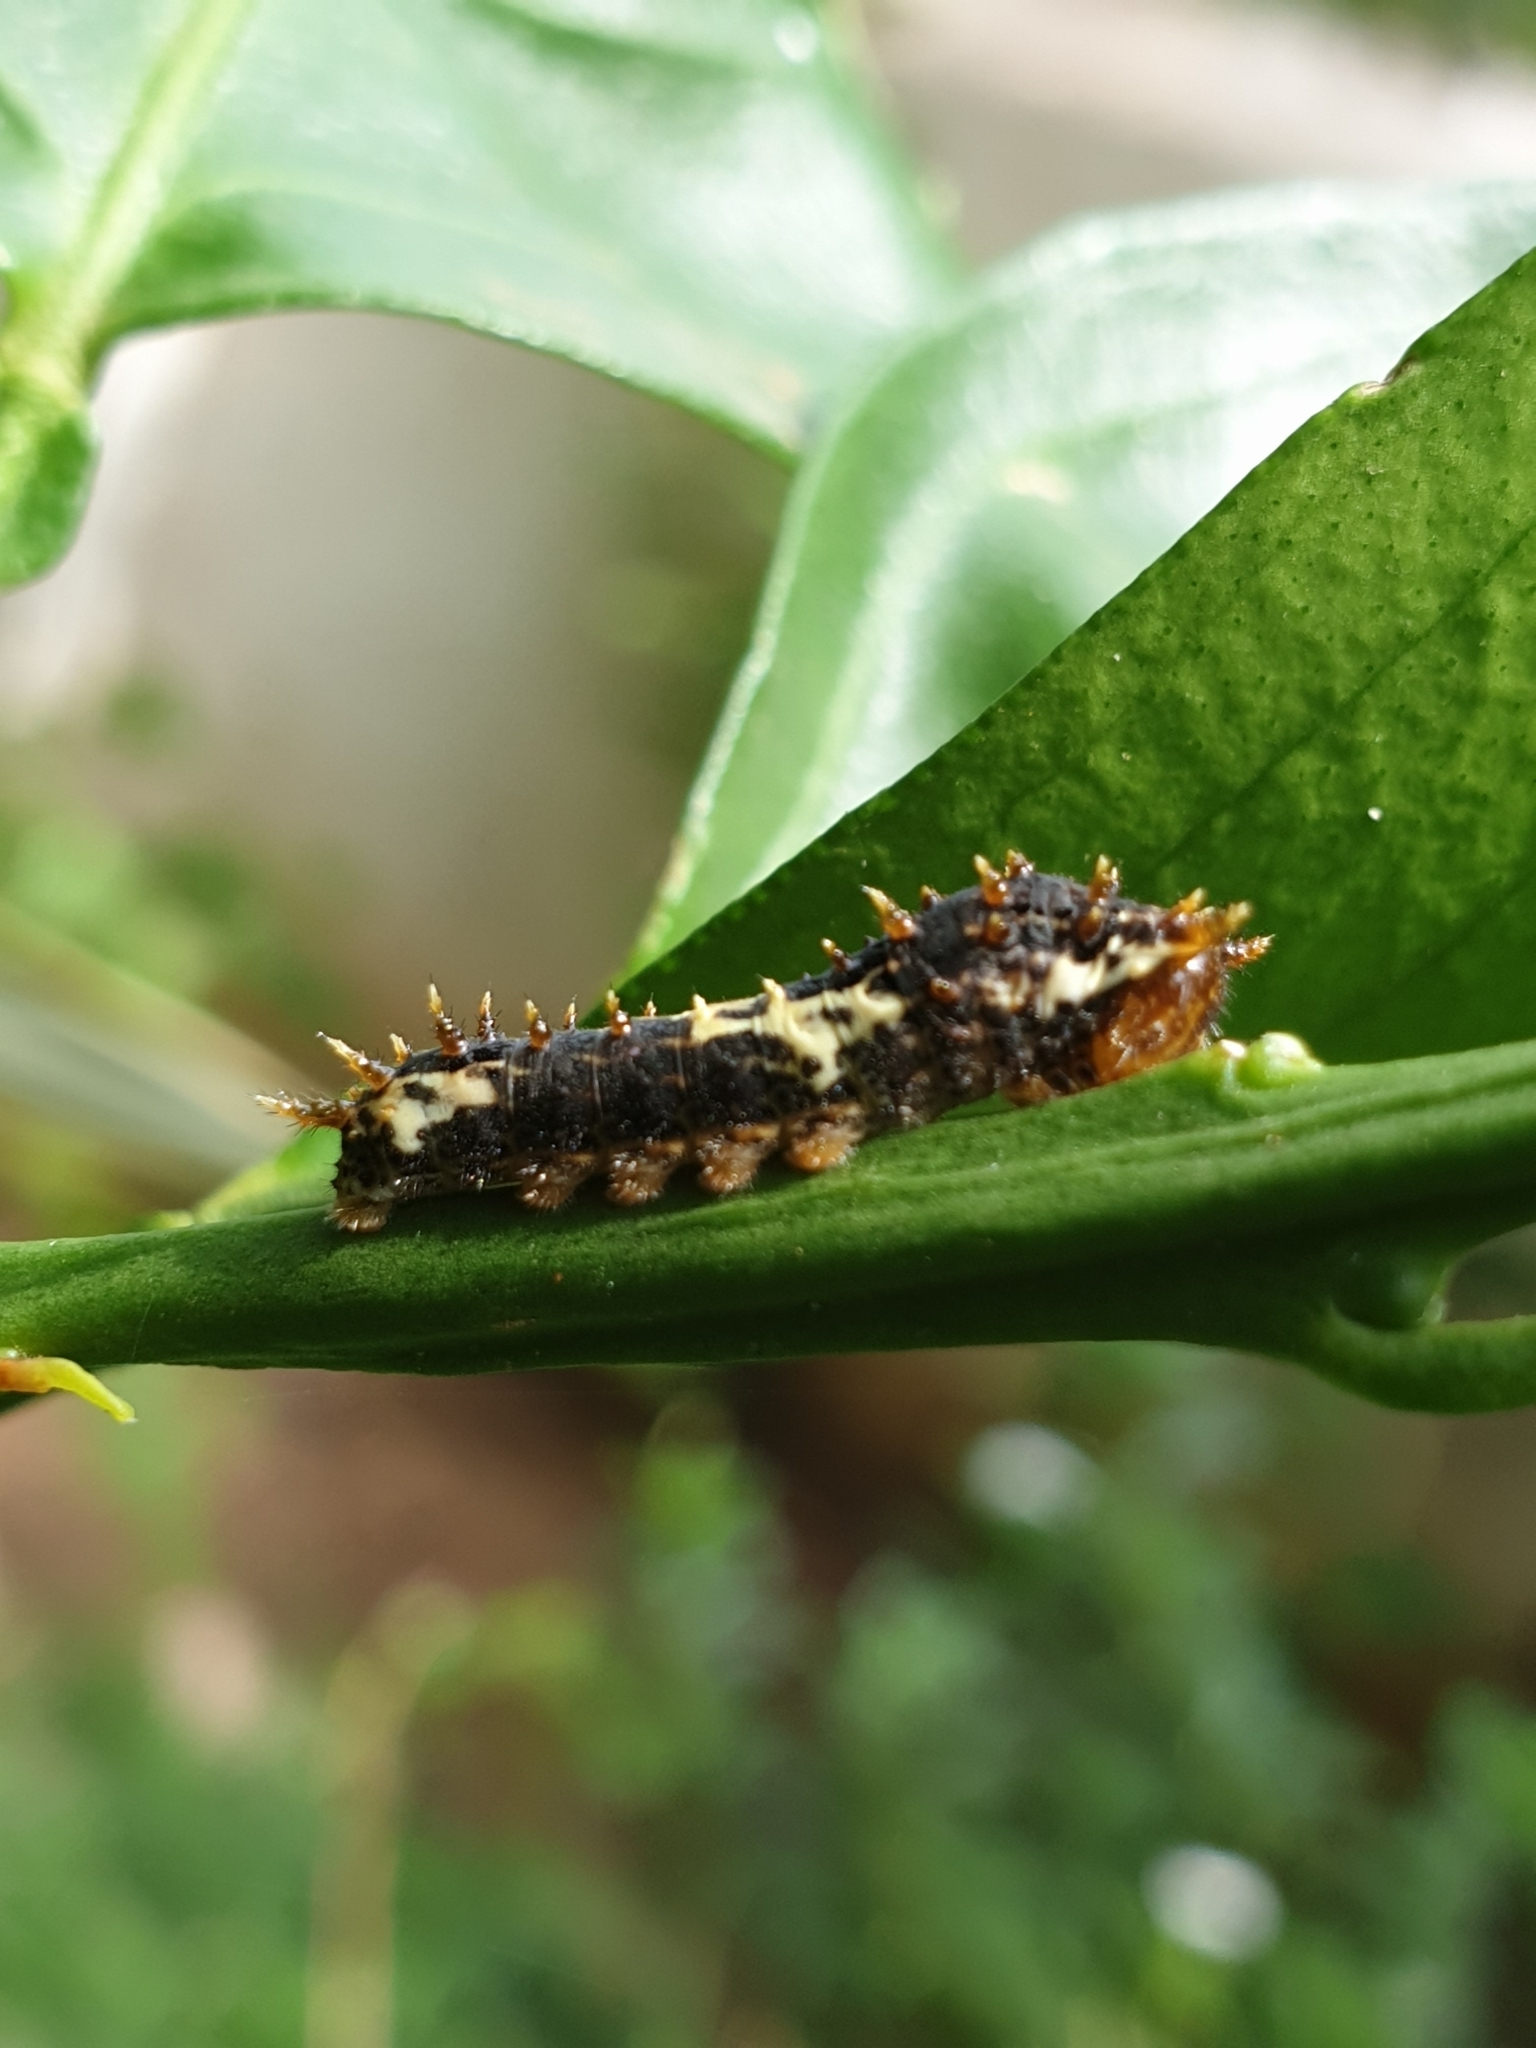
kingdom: Animalia
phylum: Arthropoda
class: Insecta
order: Lepidoptera
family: Papilionidae
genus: Papilio
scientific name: Papilio demoleus
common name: Lime butterfly
